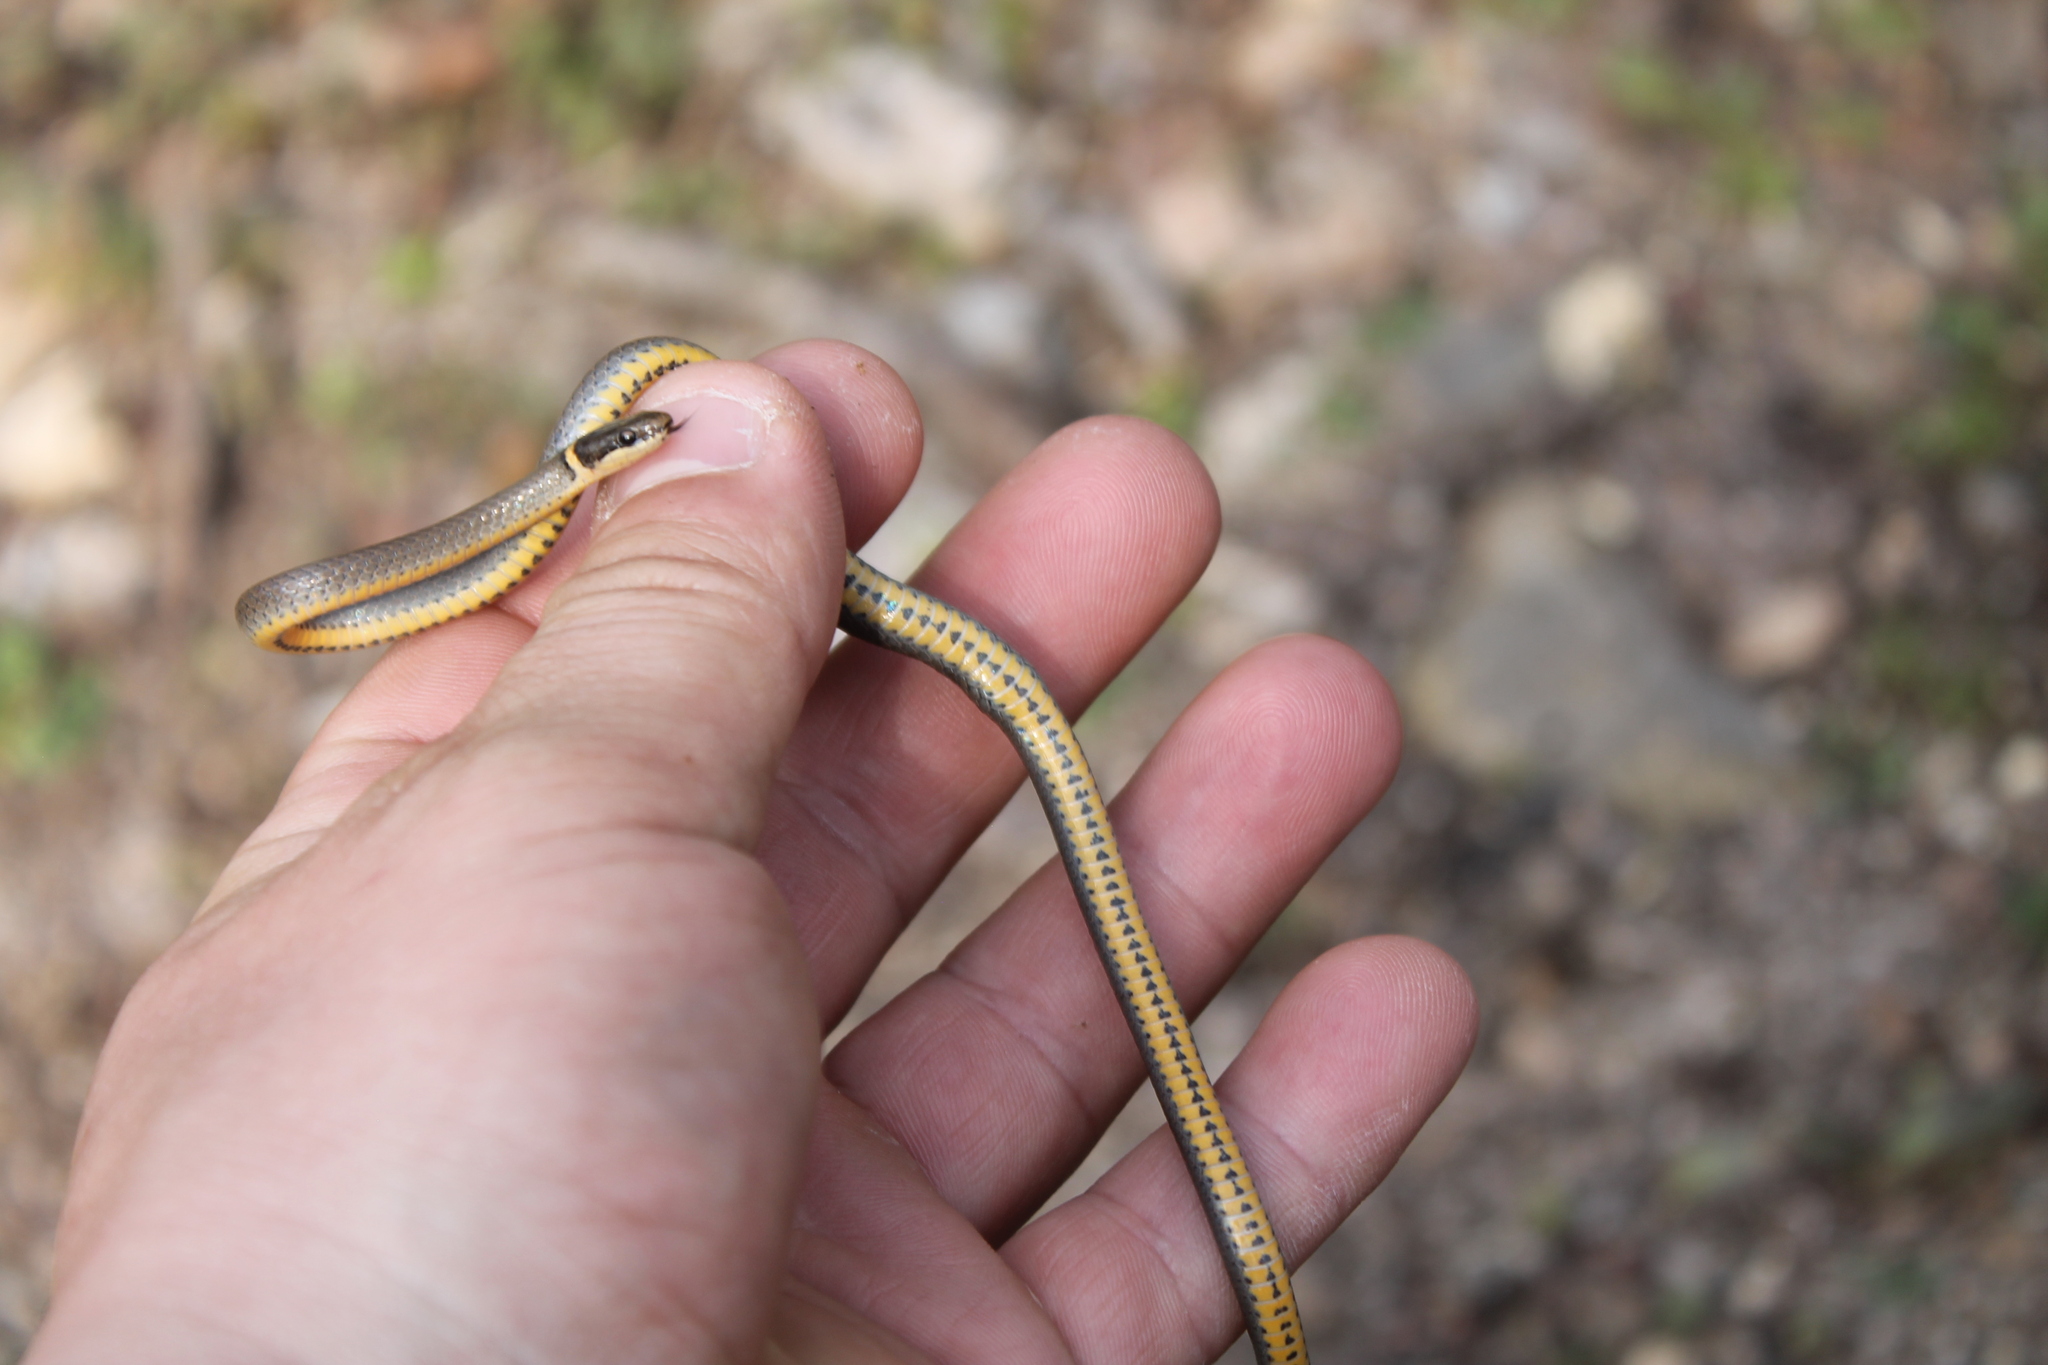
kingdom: Animalia
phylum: Chordata
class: Squamata
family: Colubridae
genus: Diadophis
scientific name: Diadophis punctatus
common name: Ringneck snake
